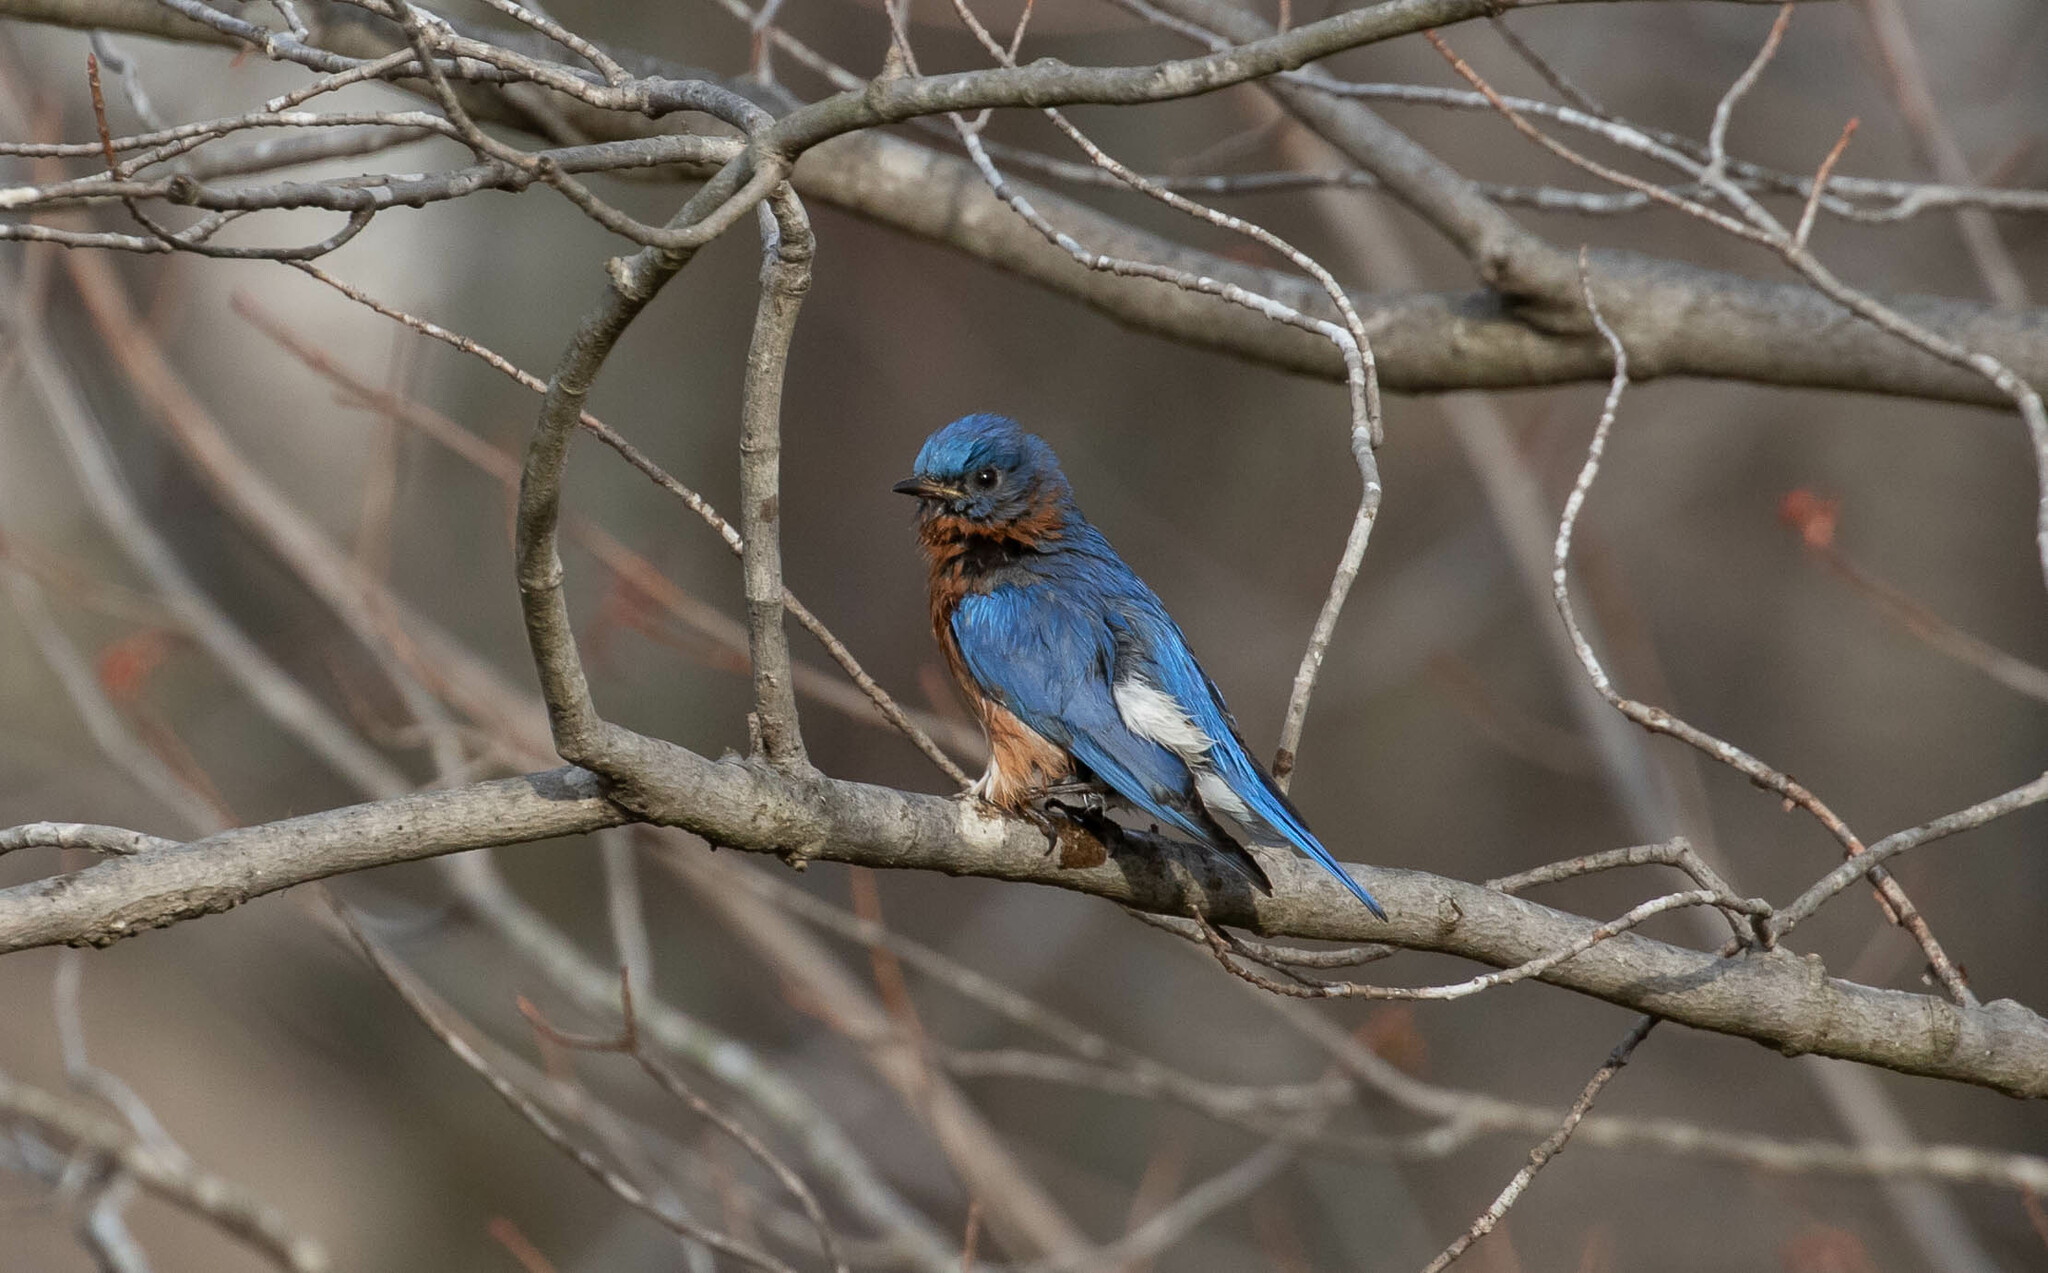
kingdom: Animalia
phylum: Chordata
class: Aves
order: Passeriformes
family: Turdidae
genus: Sialia
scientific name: Sialia sialis
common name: Eastern bluebird
